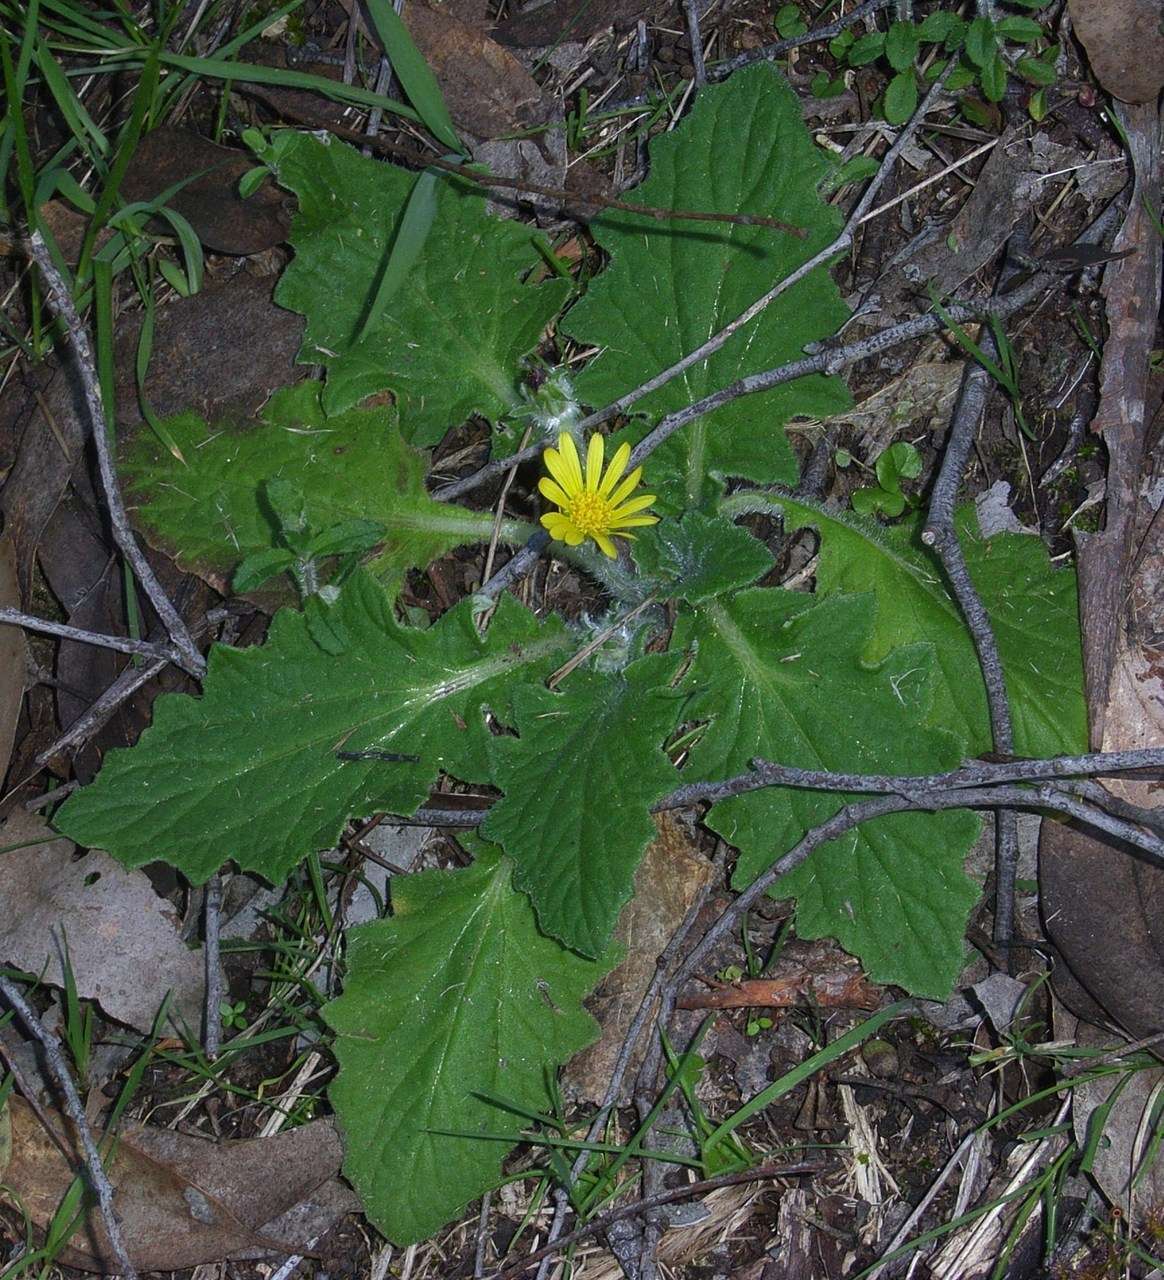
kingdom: Plantae
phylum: Tracheophyta
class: Magnoliopsida
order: Asterales
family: Asteraceae
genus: Cymbonotus
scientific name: Cymbonotus preissianus
